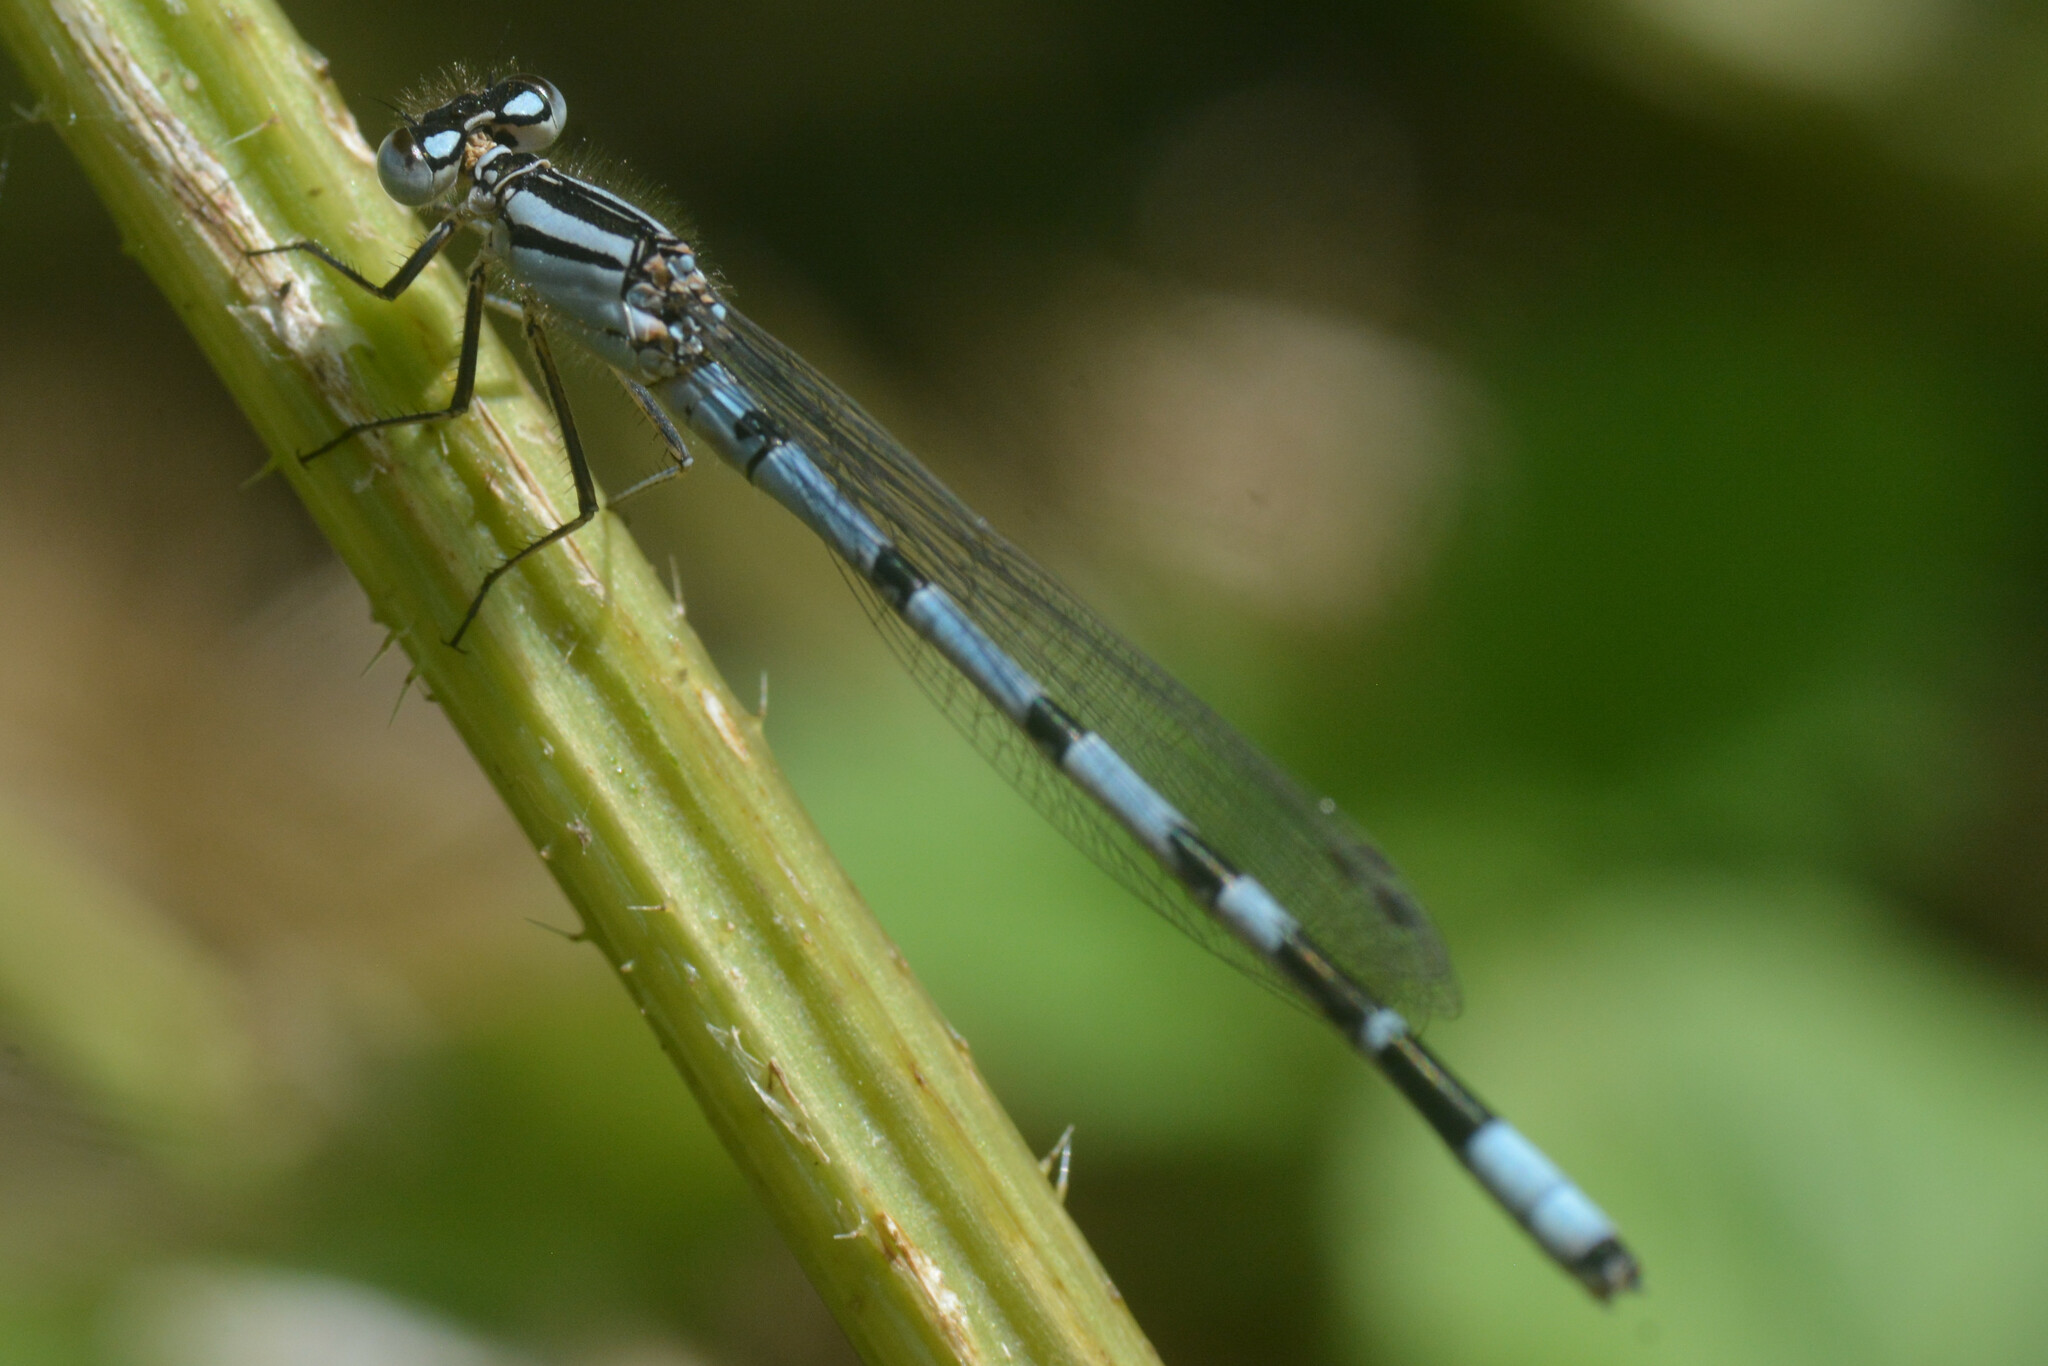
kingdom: Animalia
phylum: Arthropoda
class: Insecta
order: Odonata
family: Coenagrionidae
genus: Enallagma
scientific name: Enallagma cyathigerum
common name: Common blue damselfly
